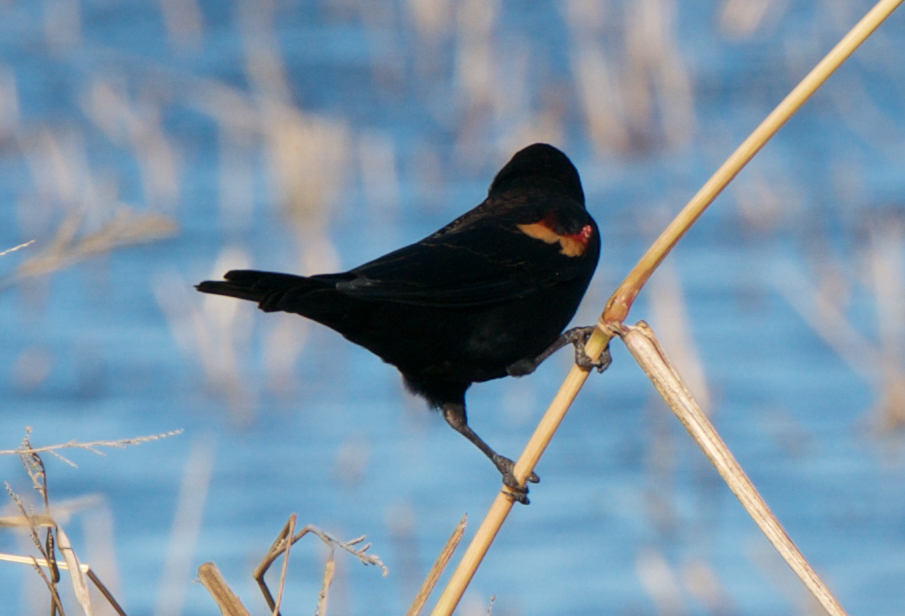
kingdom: Animalia
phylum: Chordata
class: Aves
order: Passeriformes
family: Icteridae
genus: Agelaius
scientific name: Agelaius phoeniceus
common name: Red-winged blackbird
